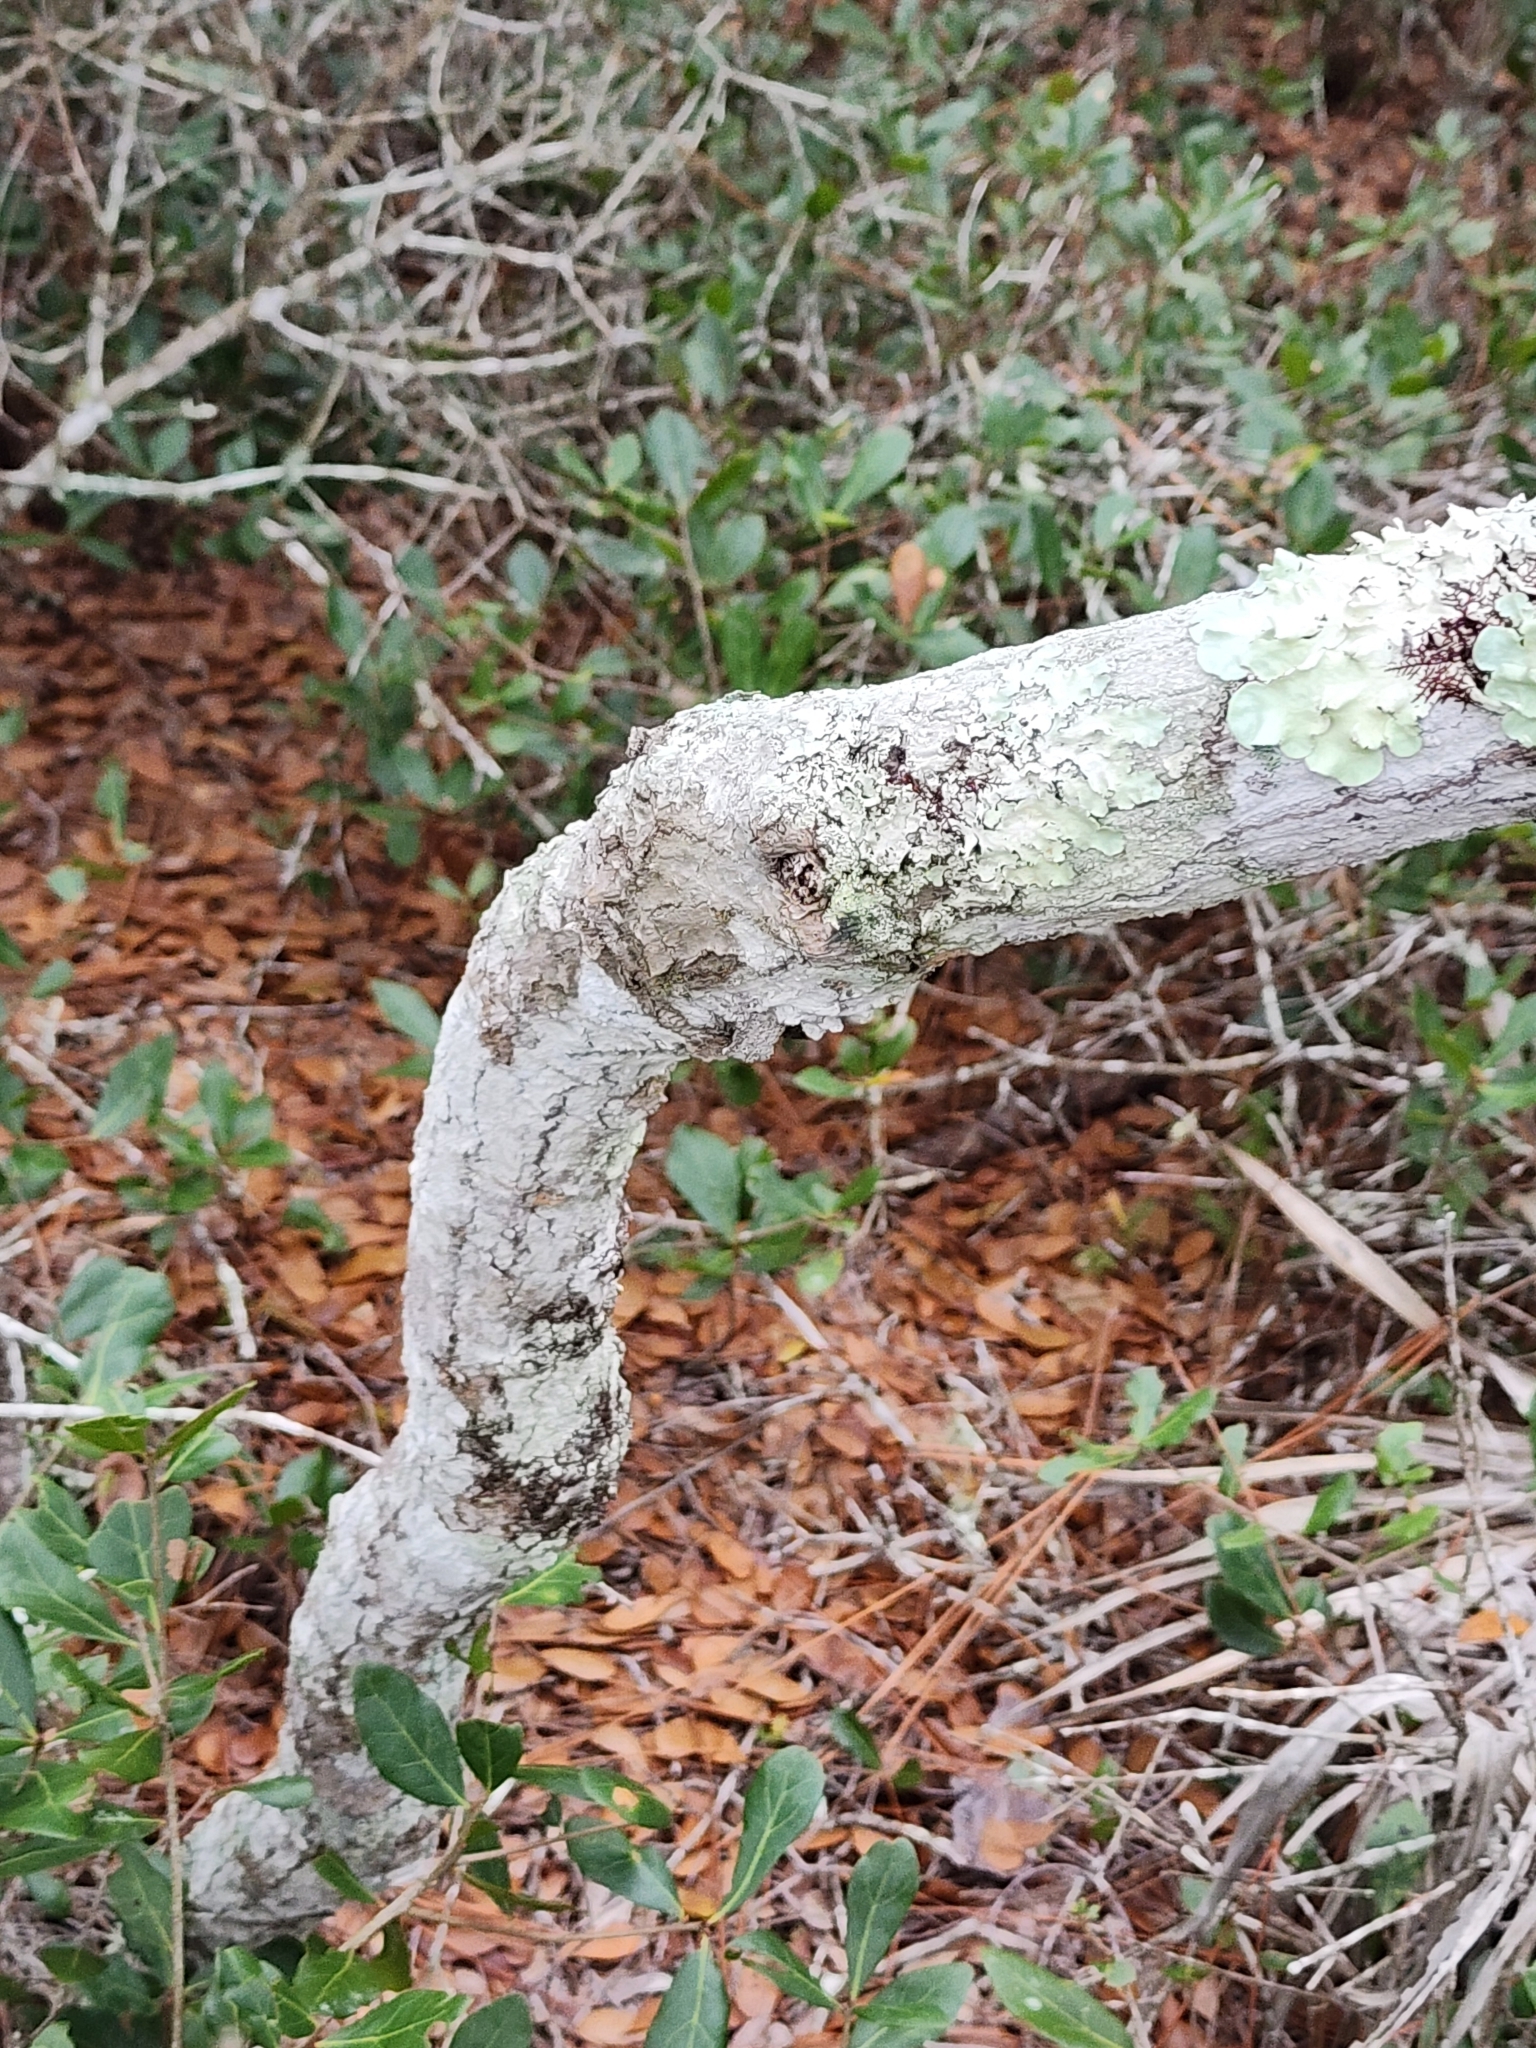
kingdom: Plantae
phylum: Tracheophyta
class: Magnoliopsida
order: Fagales
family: Fagaceae
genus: Quercus
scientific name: Quercus myrtifolia
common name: Myrtle oak
